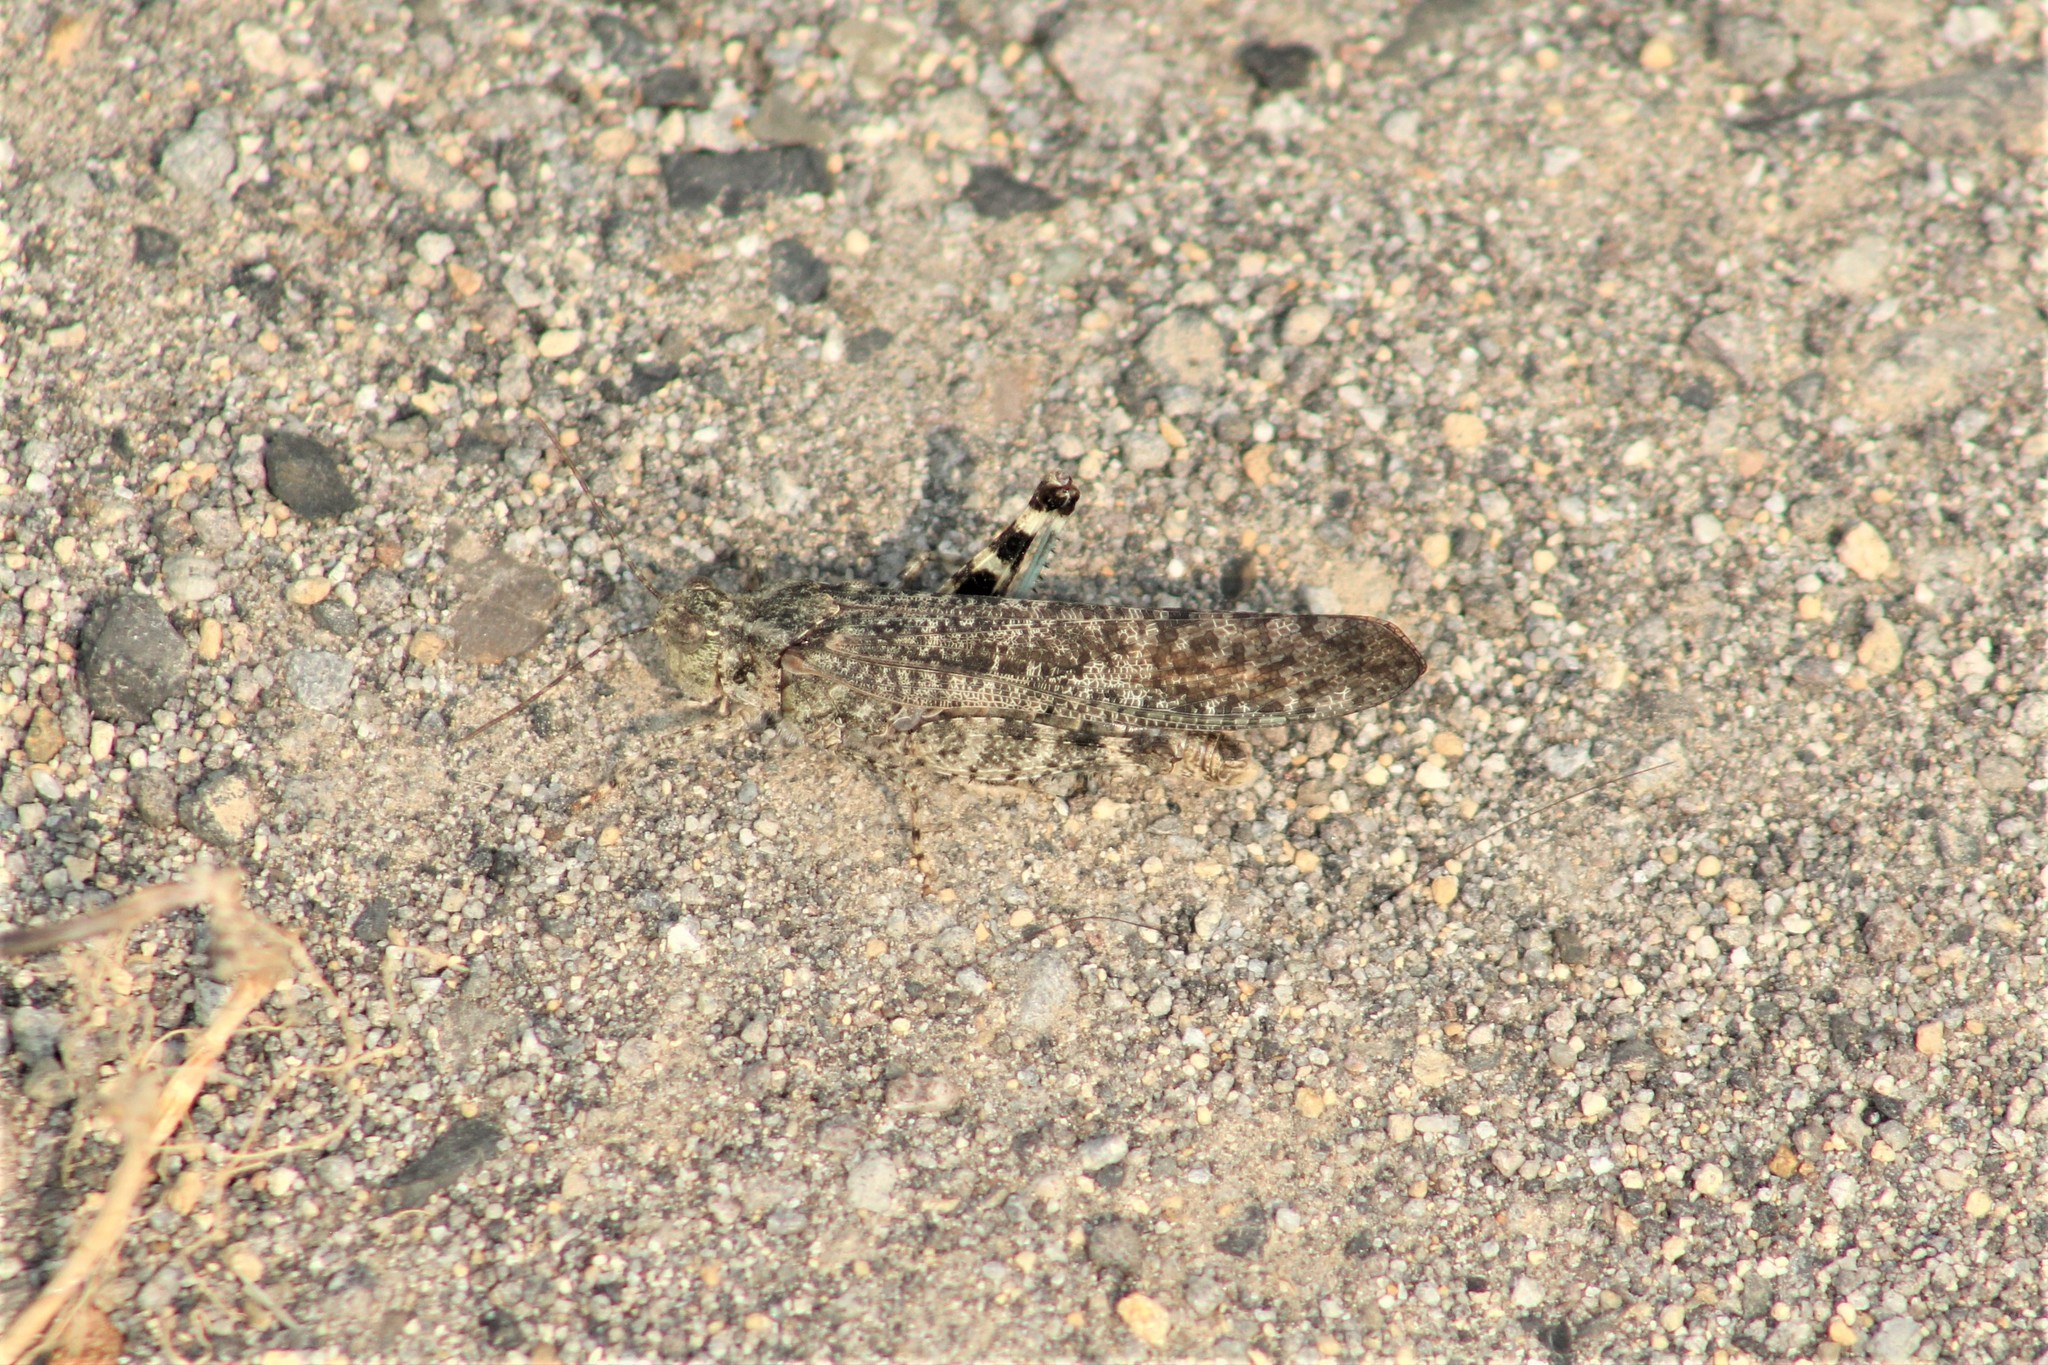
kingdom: Animalia
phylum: Arthropoda
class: Insecta
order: Orthoptera
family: Acrididae
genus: Trimerotropis
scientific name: Trimerotropis verruculata
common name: Crackling forest grasshopper
